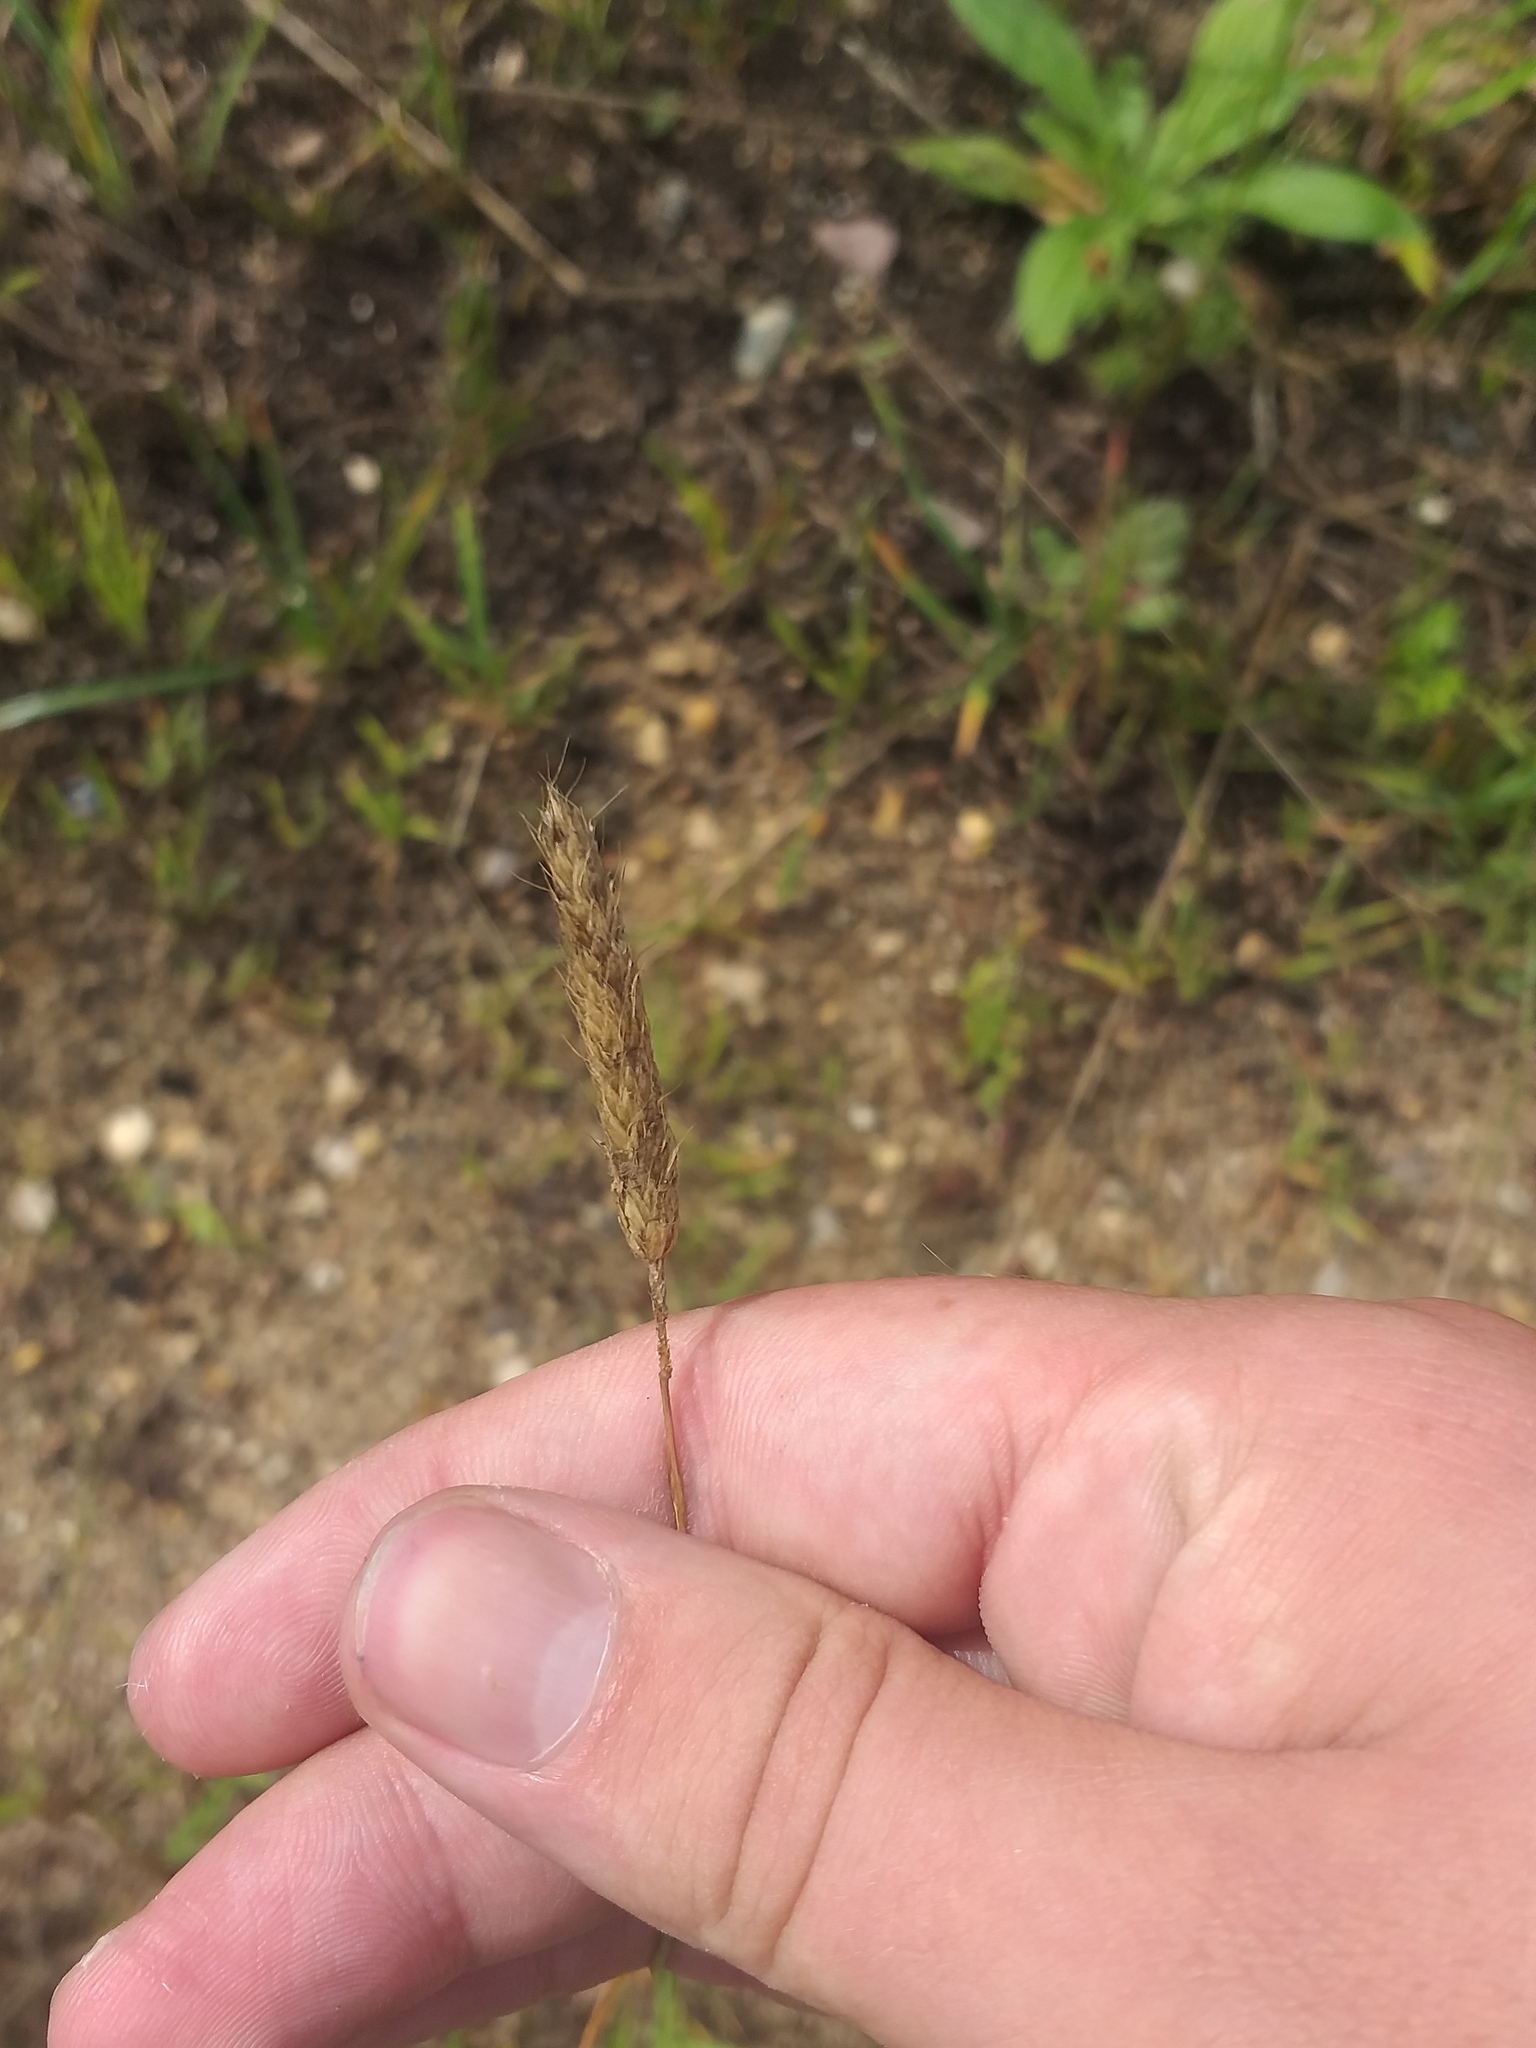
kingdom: Plantae
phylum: Tracheophyta
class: Liliopsida
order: Poales
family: Poaceae
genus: Alopecurus
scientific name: Alopecurus pratensis
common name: Meadow foxtail
